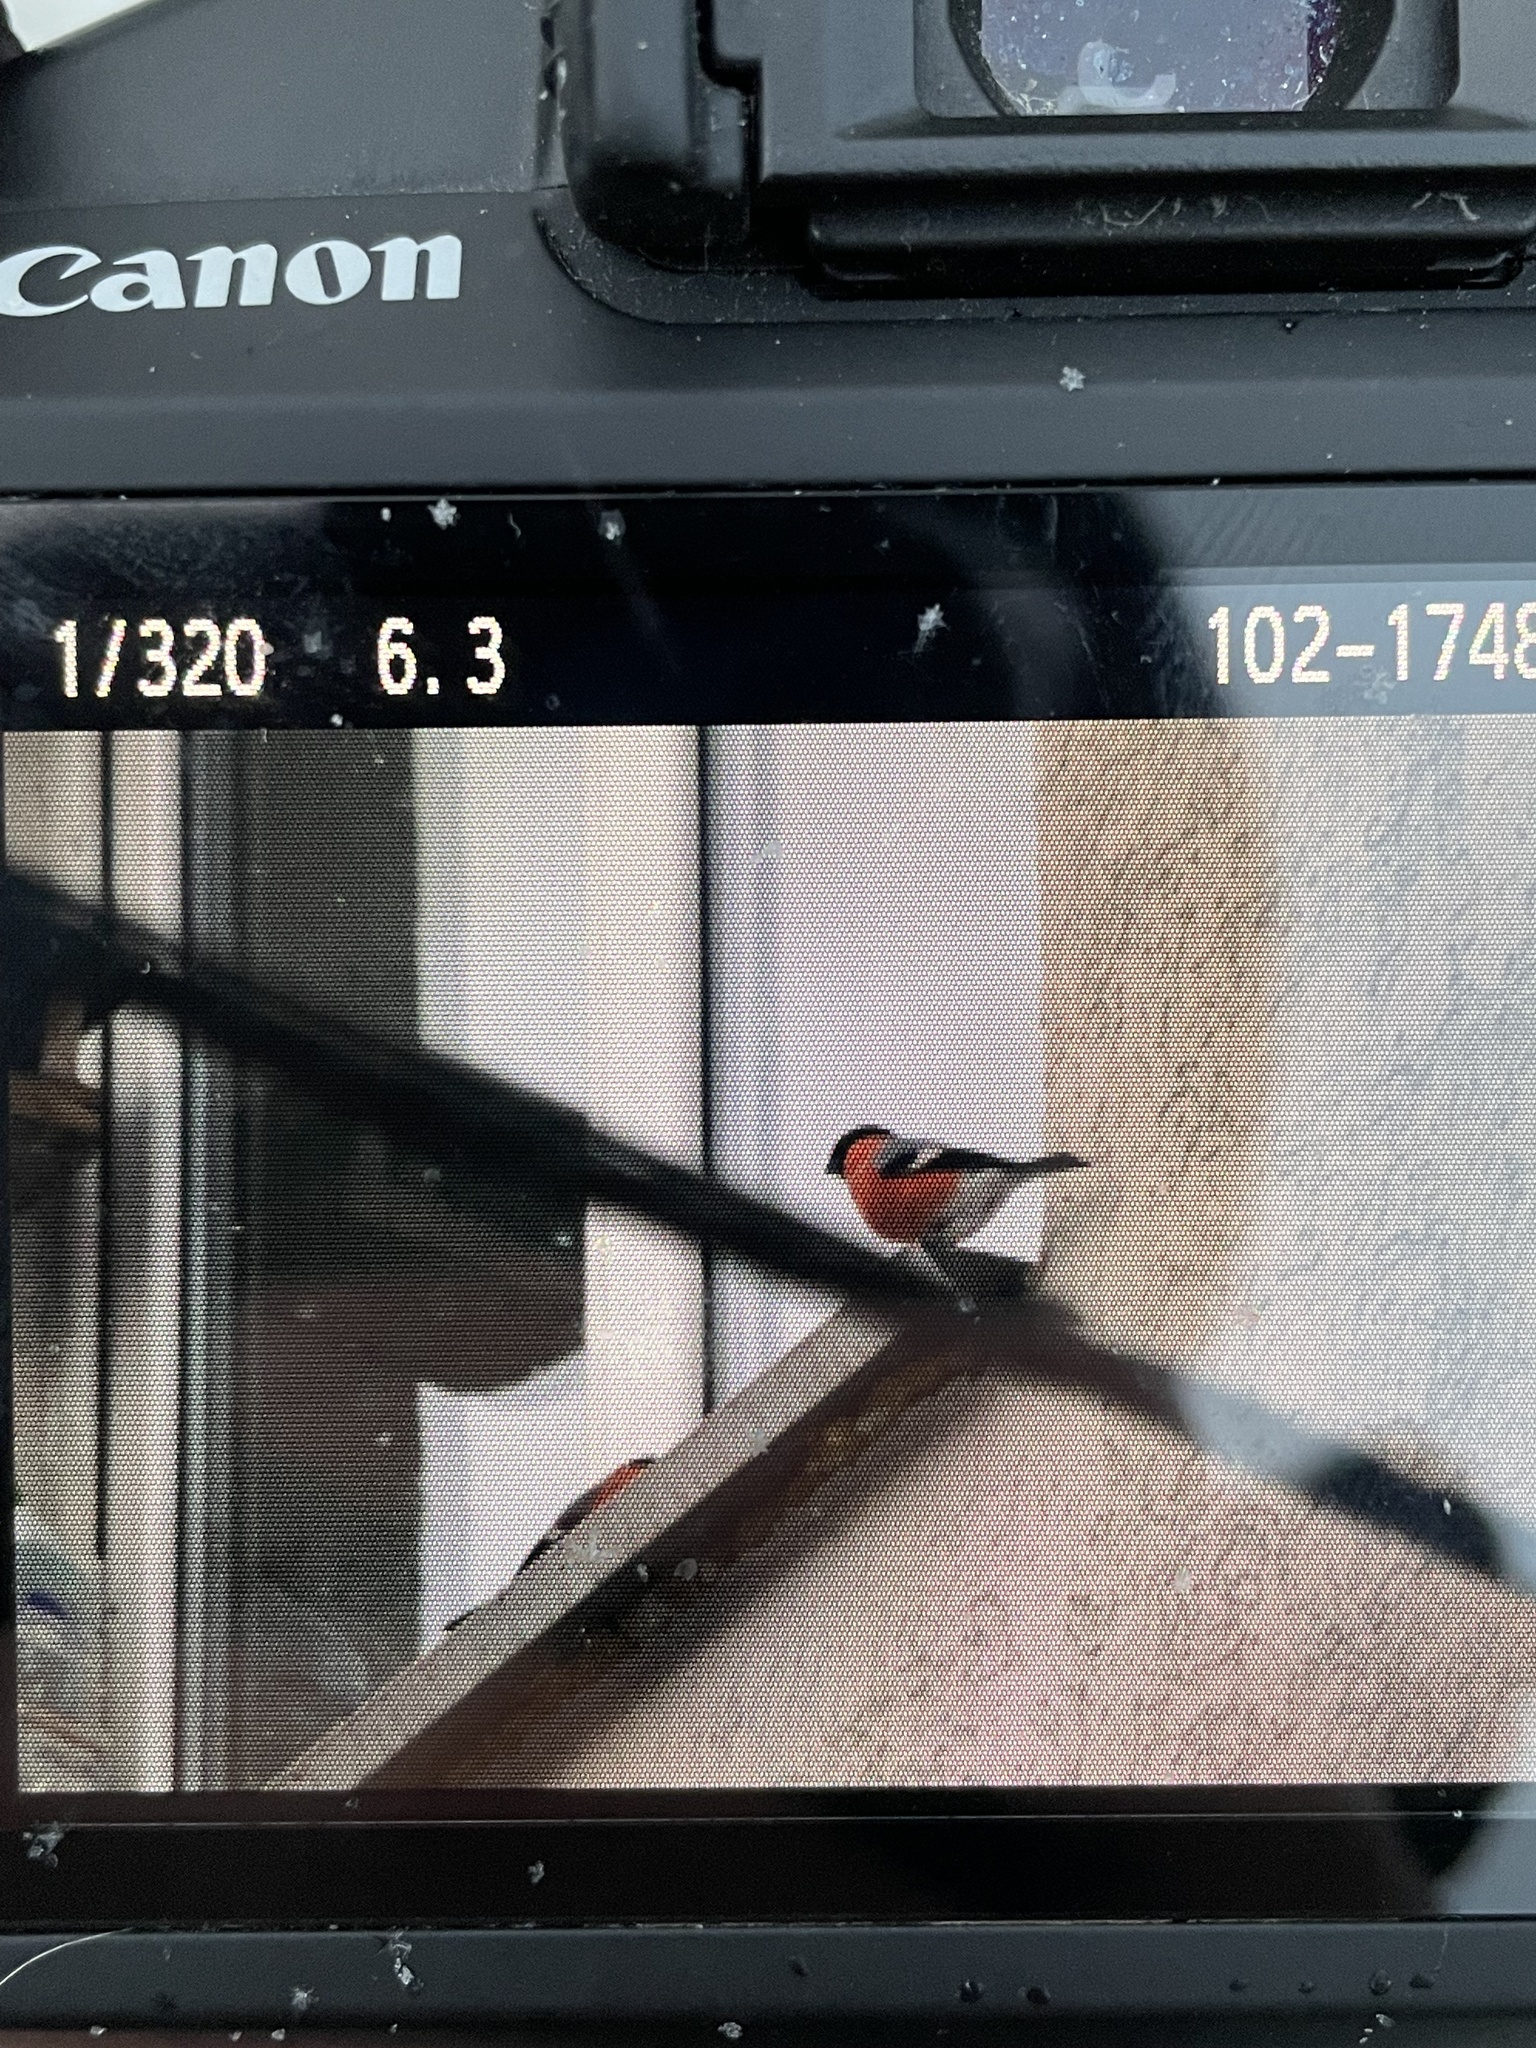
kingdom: Animalia
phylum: Chordata
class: Aves
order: Passeriformes
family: Fringillidae
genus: Pyrrhula
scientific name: Pyrrhula pyrrhula
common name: Eurasian bullfinch
